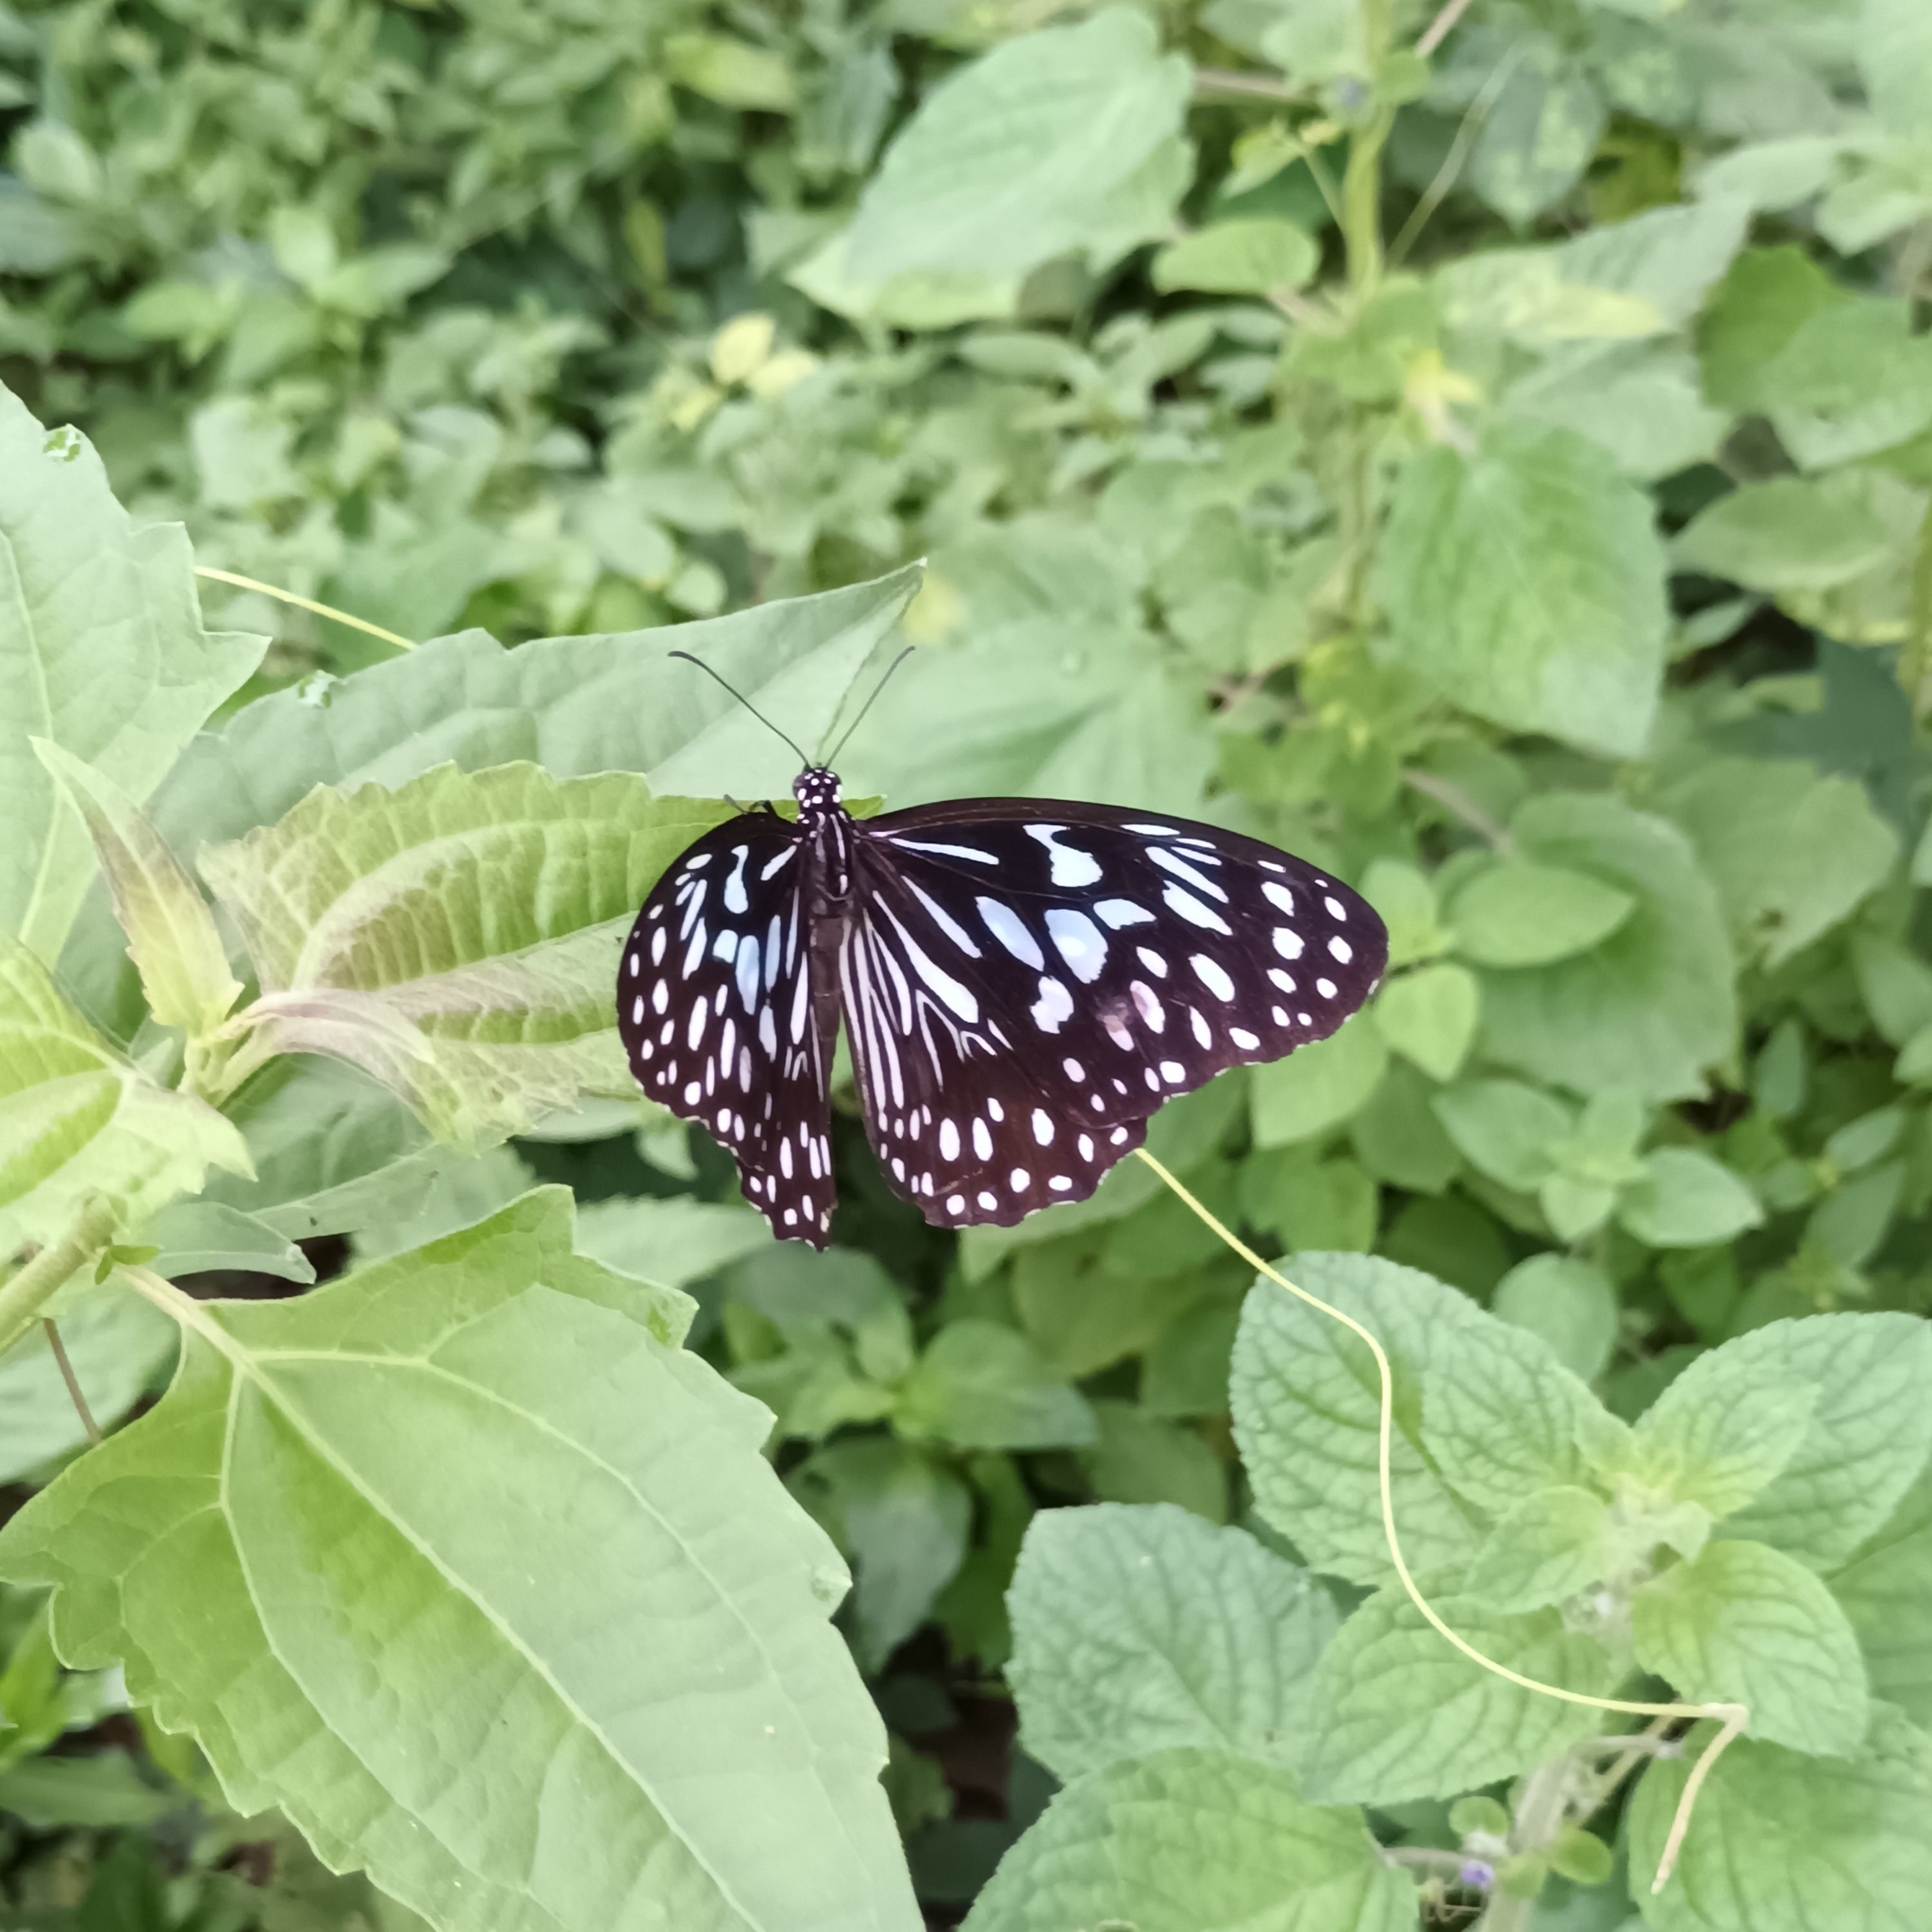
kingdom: Animalia
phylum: Arthropoda
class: Insecta
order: Lepidoptera
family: Nymphalidae
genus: Tirumala
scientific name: Tirumala septentrionis
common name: Dark blue tiger butterfly
